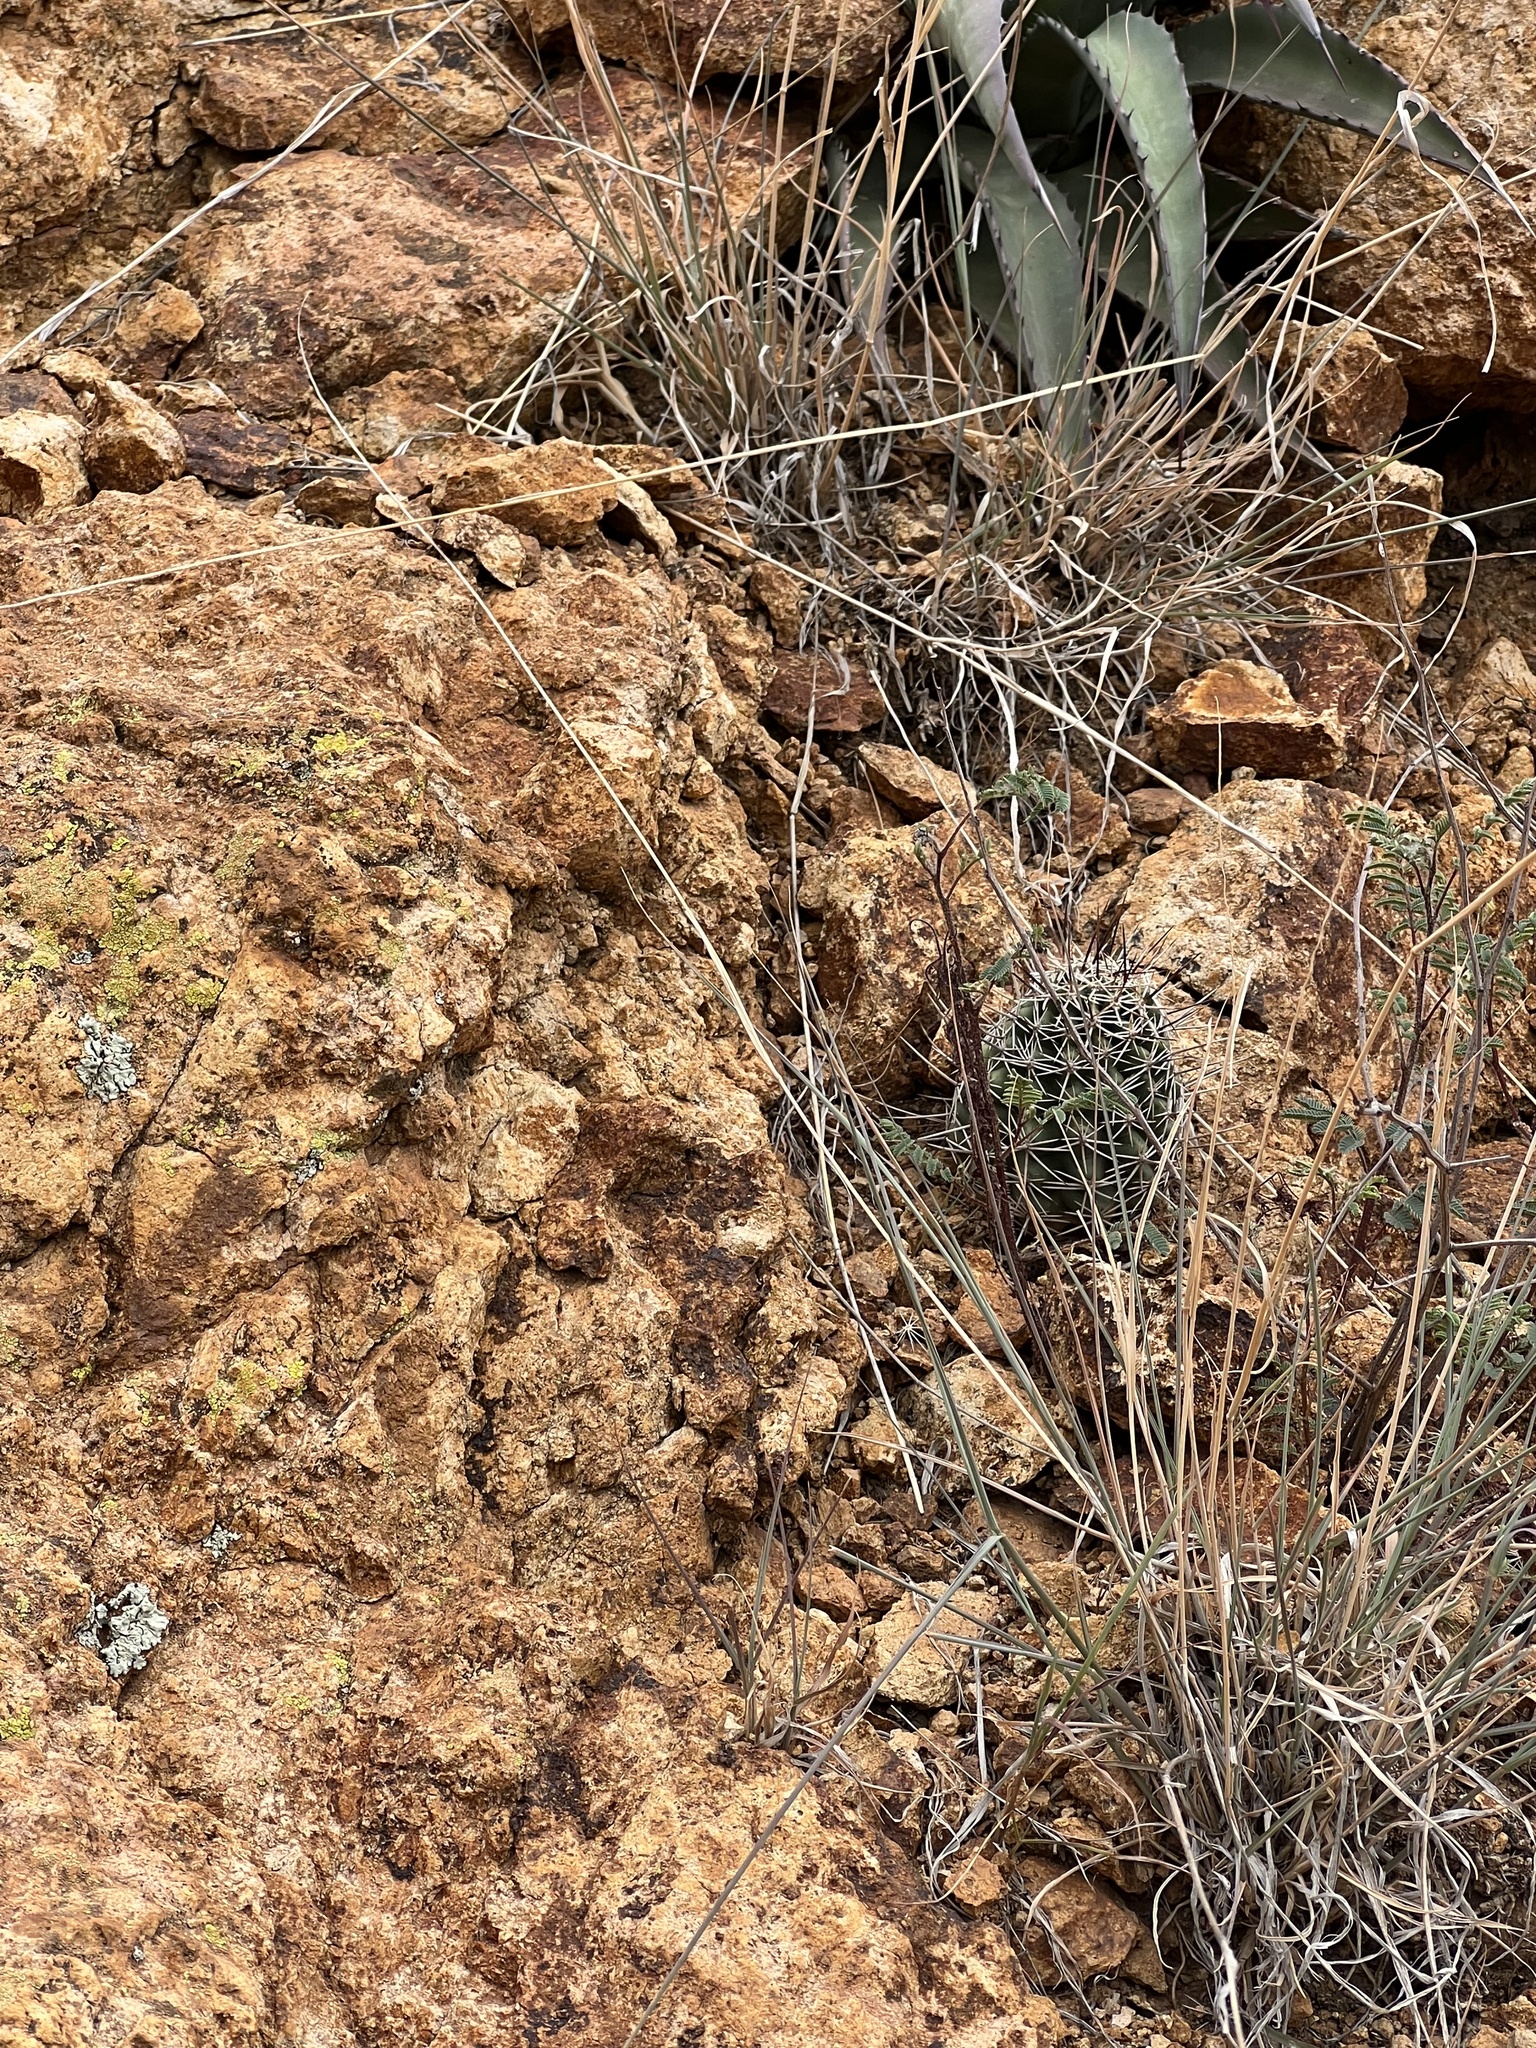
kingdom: Plantae
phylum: Tracheophyta
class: Magnoliopsida
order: Caryophyllales
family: Cactaceae
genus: Echinocereus
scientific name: Echinocereus fendleri
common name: Fendler's hedgehog cactus
